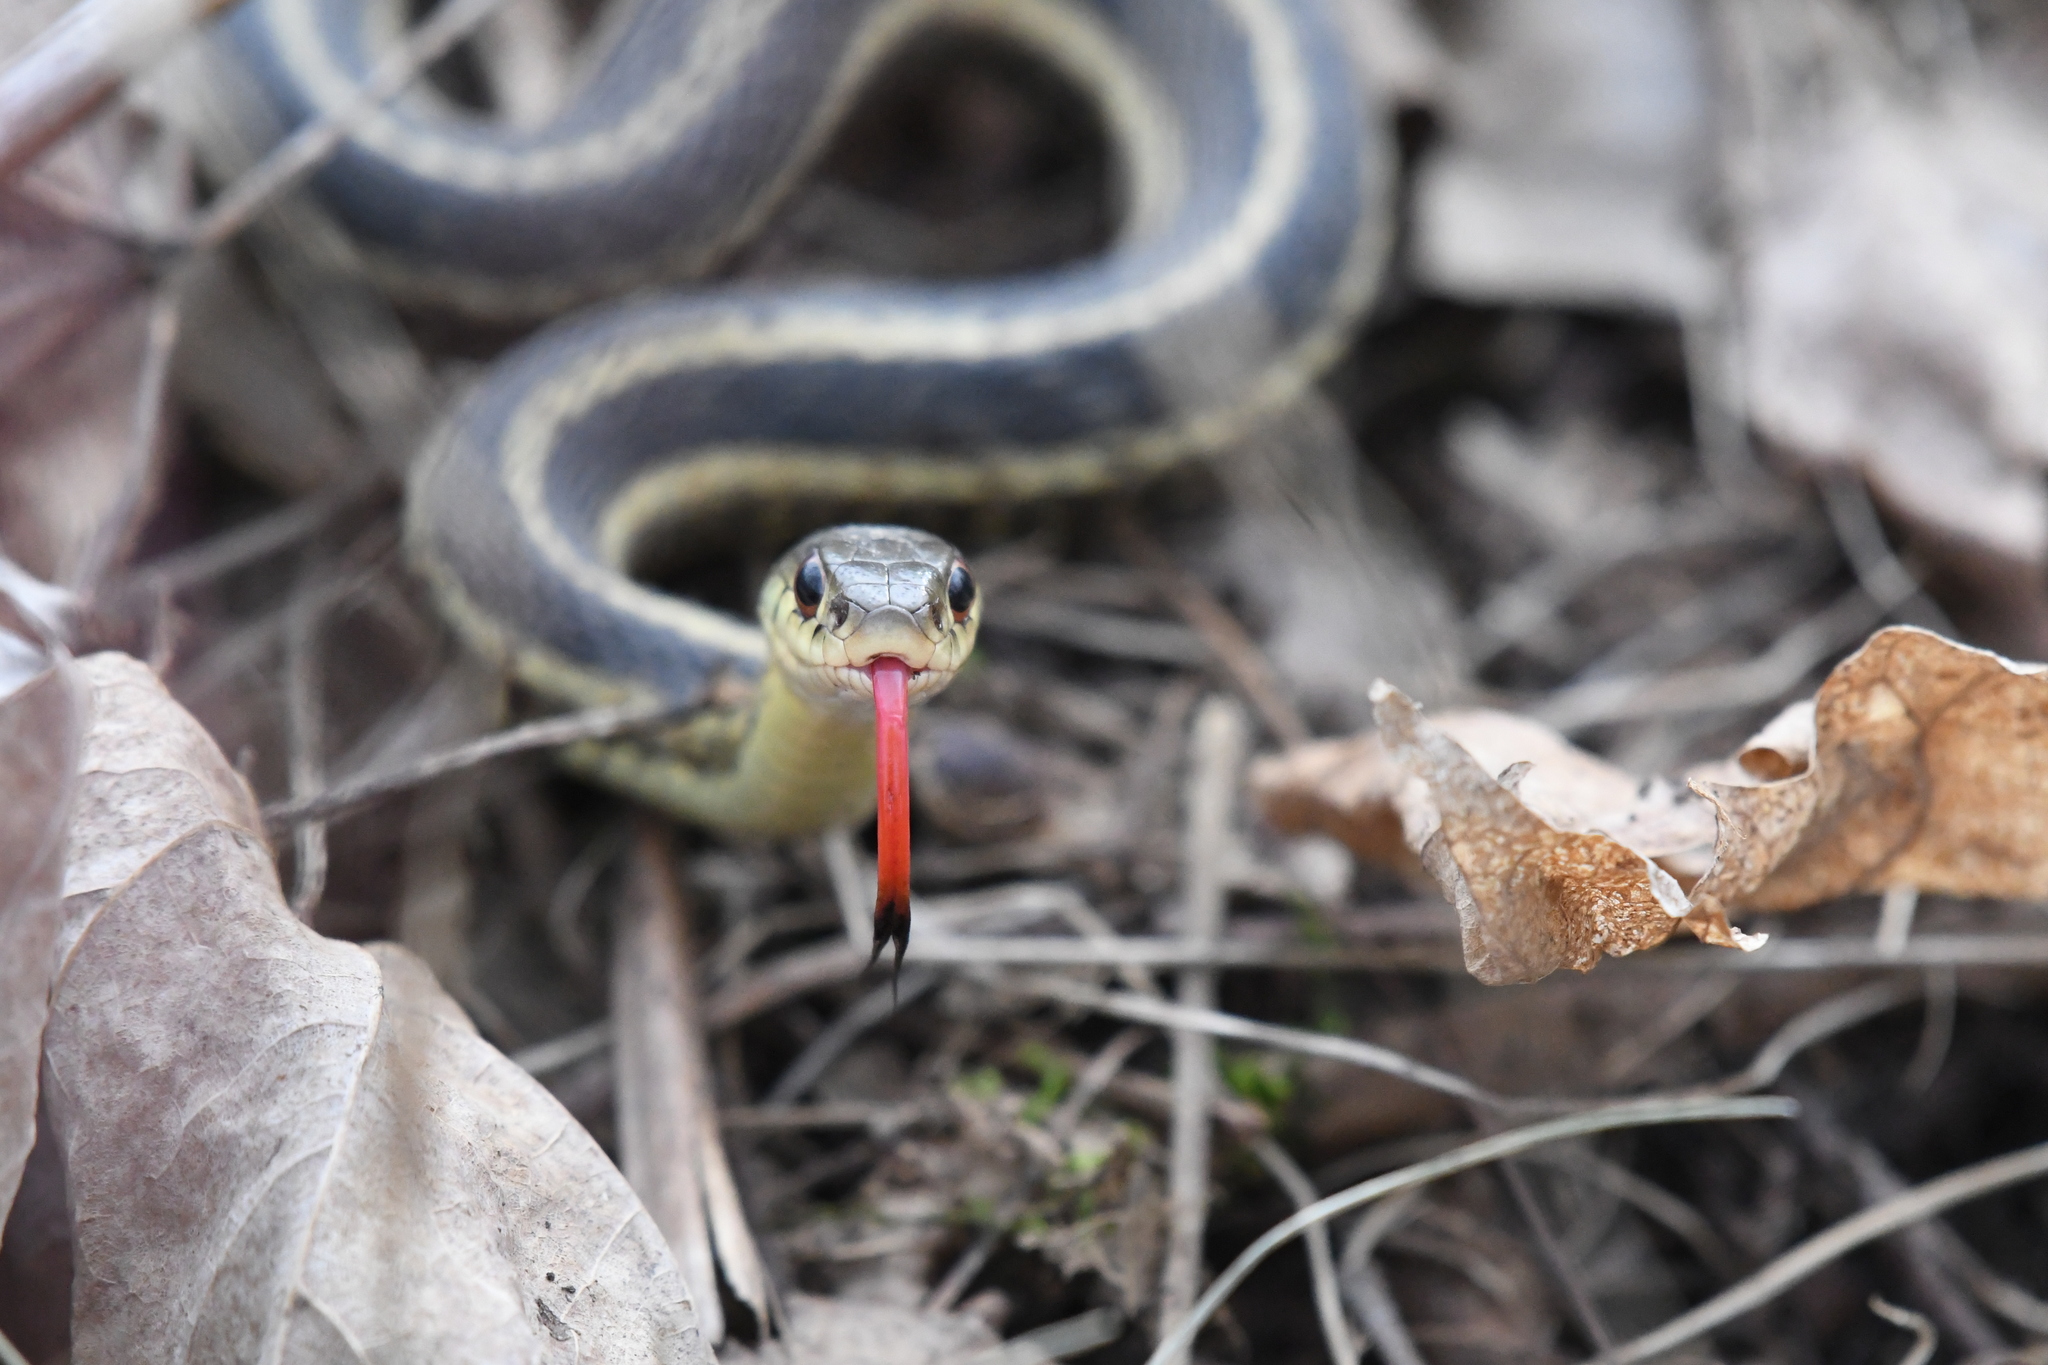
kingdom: Animalia
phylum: Chordata
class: Squamata
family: Colubridae
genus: Thamnophis
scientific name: Thamnophis sirtalis
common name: Common garter snake
